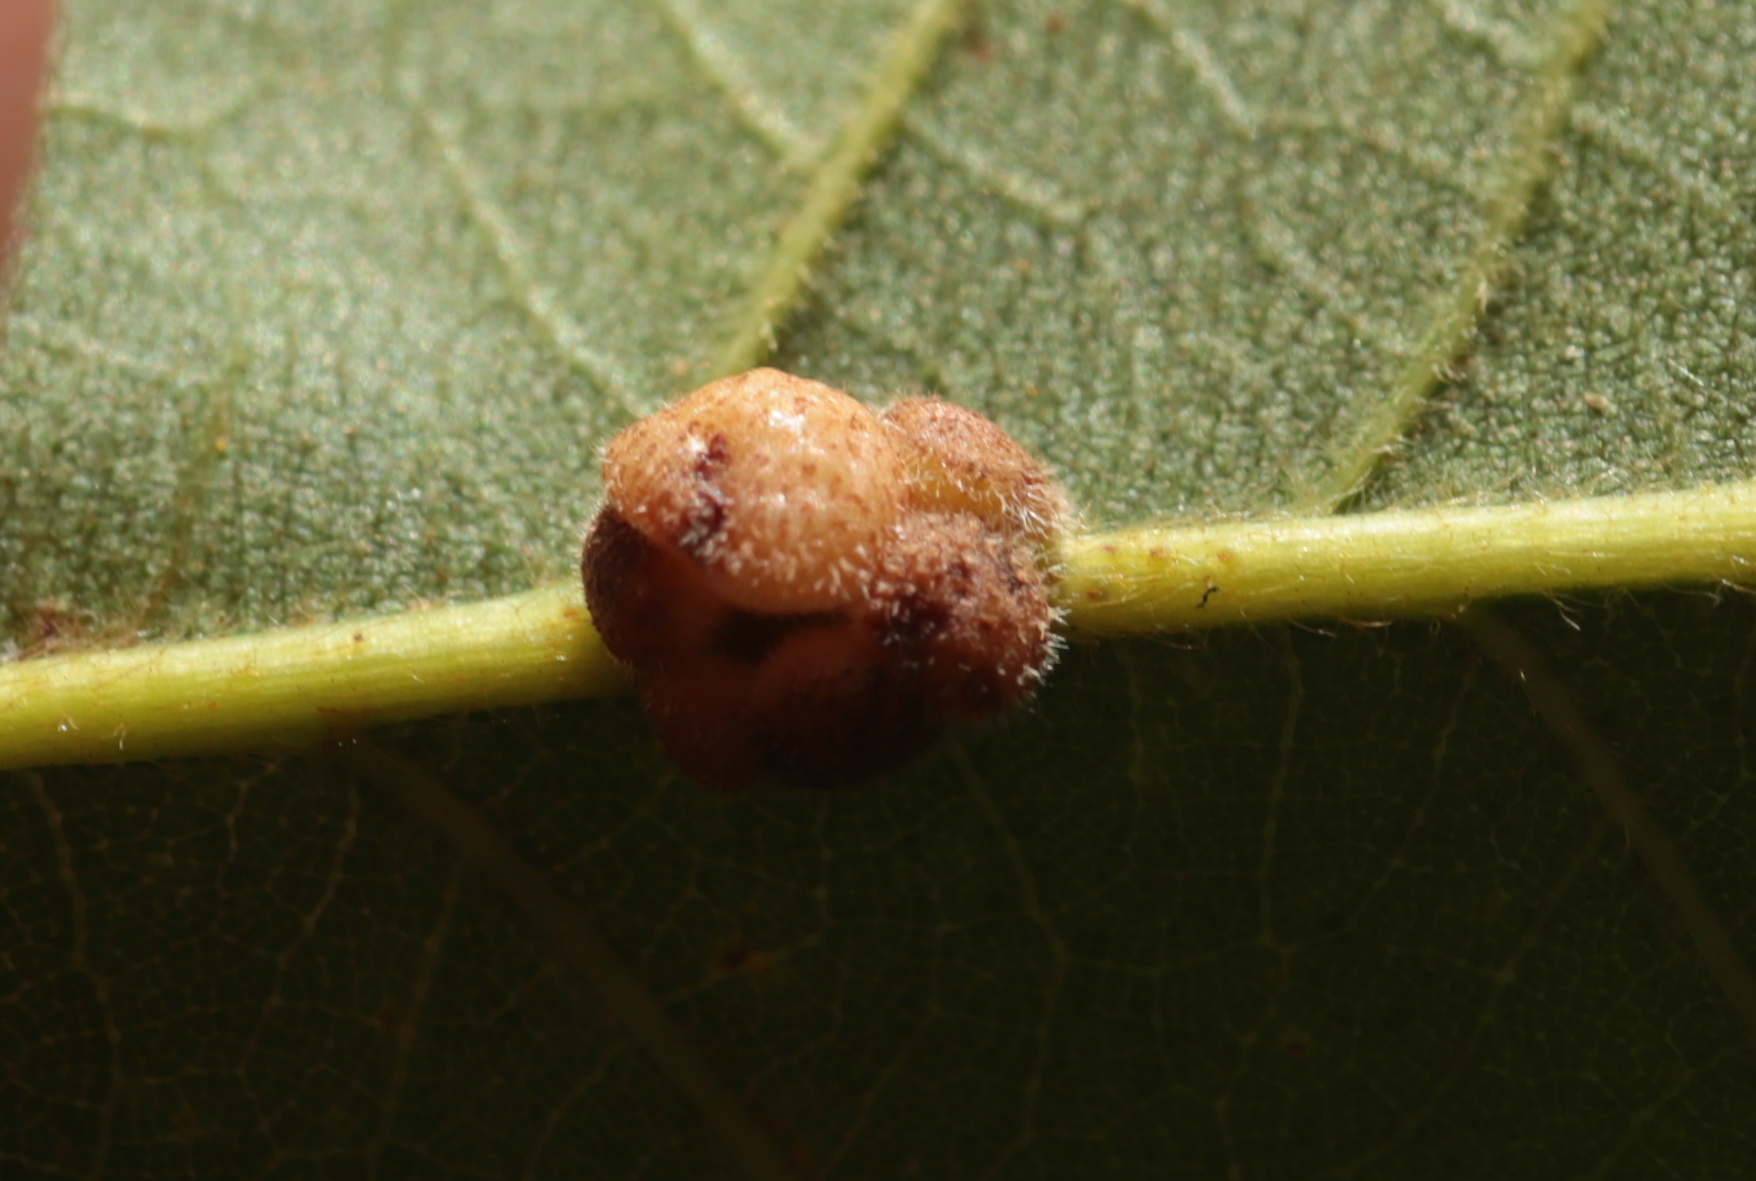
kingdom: Animalia
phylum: Arthropoda
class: Insecta
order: Hymenoptera
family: Cynipidae
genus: Andricus
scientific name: Andricus
